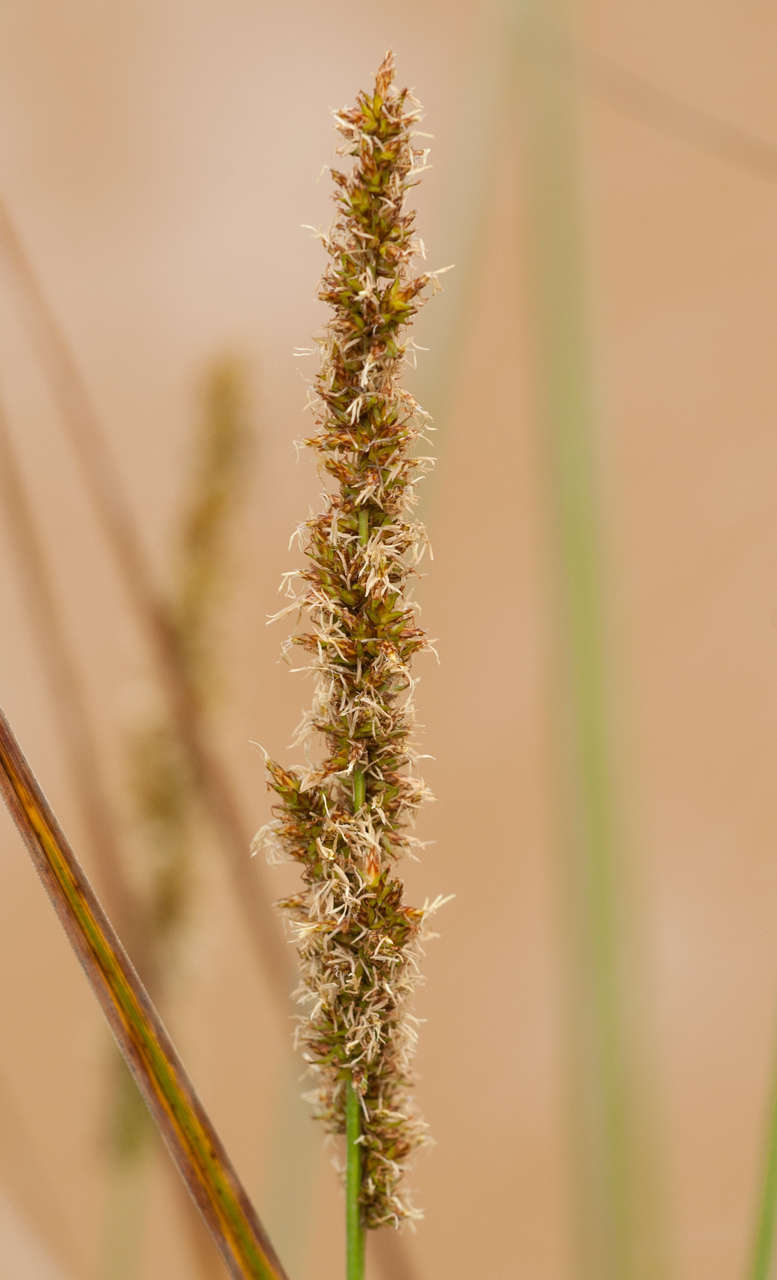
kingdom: Plantae
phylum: Tracheophyta
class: Liliopsida
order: Poales
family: Cyperaceae
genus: Carex
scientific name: Carex tereticaulis
